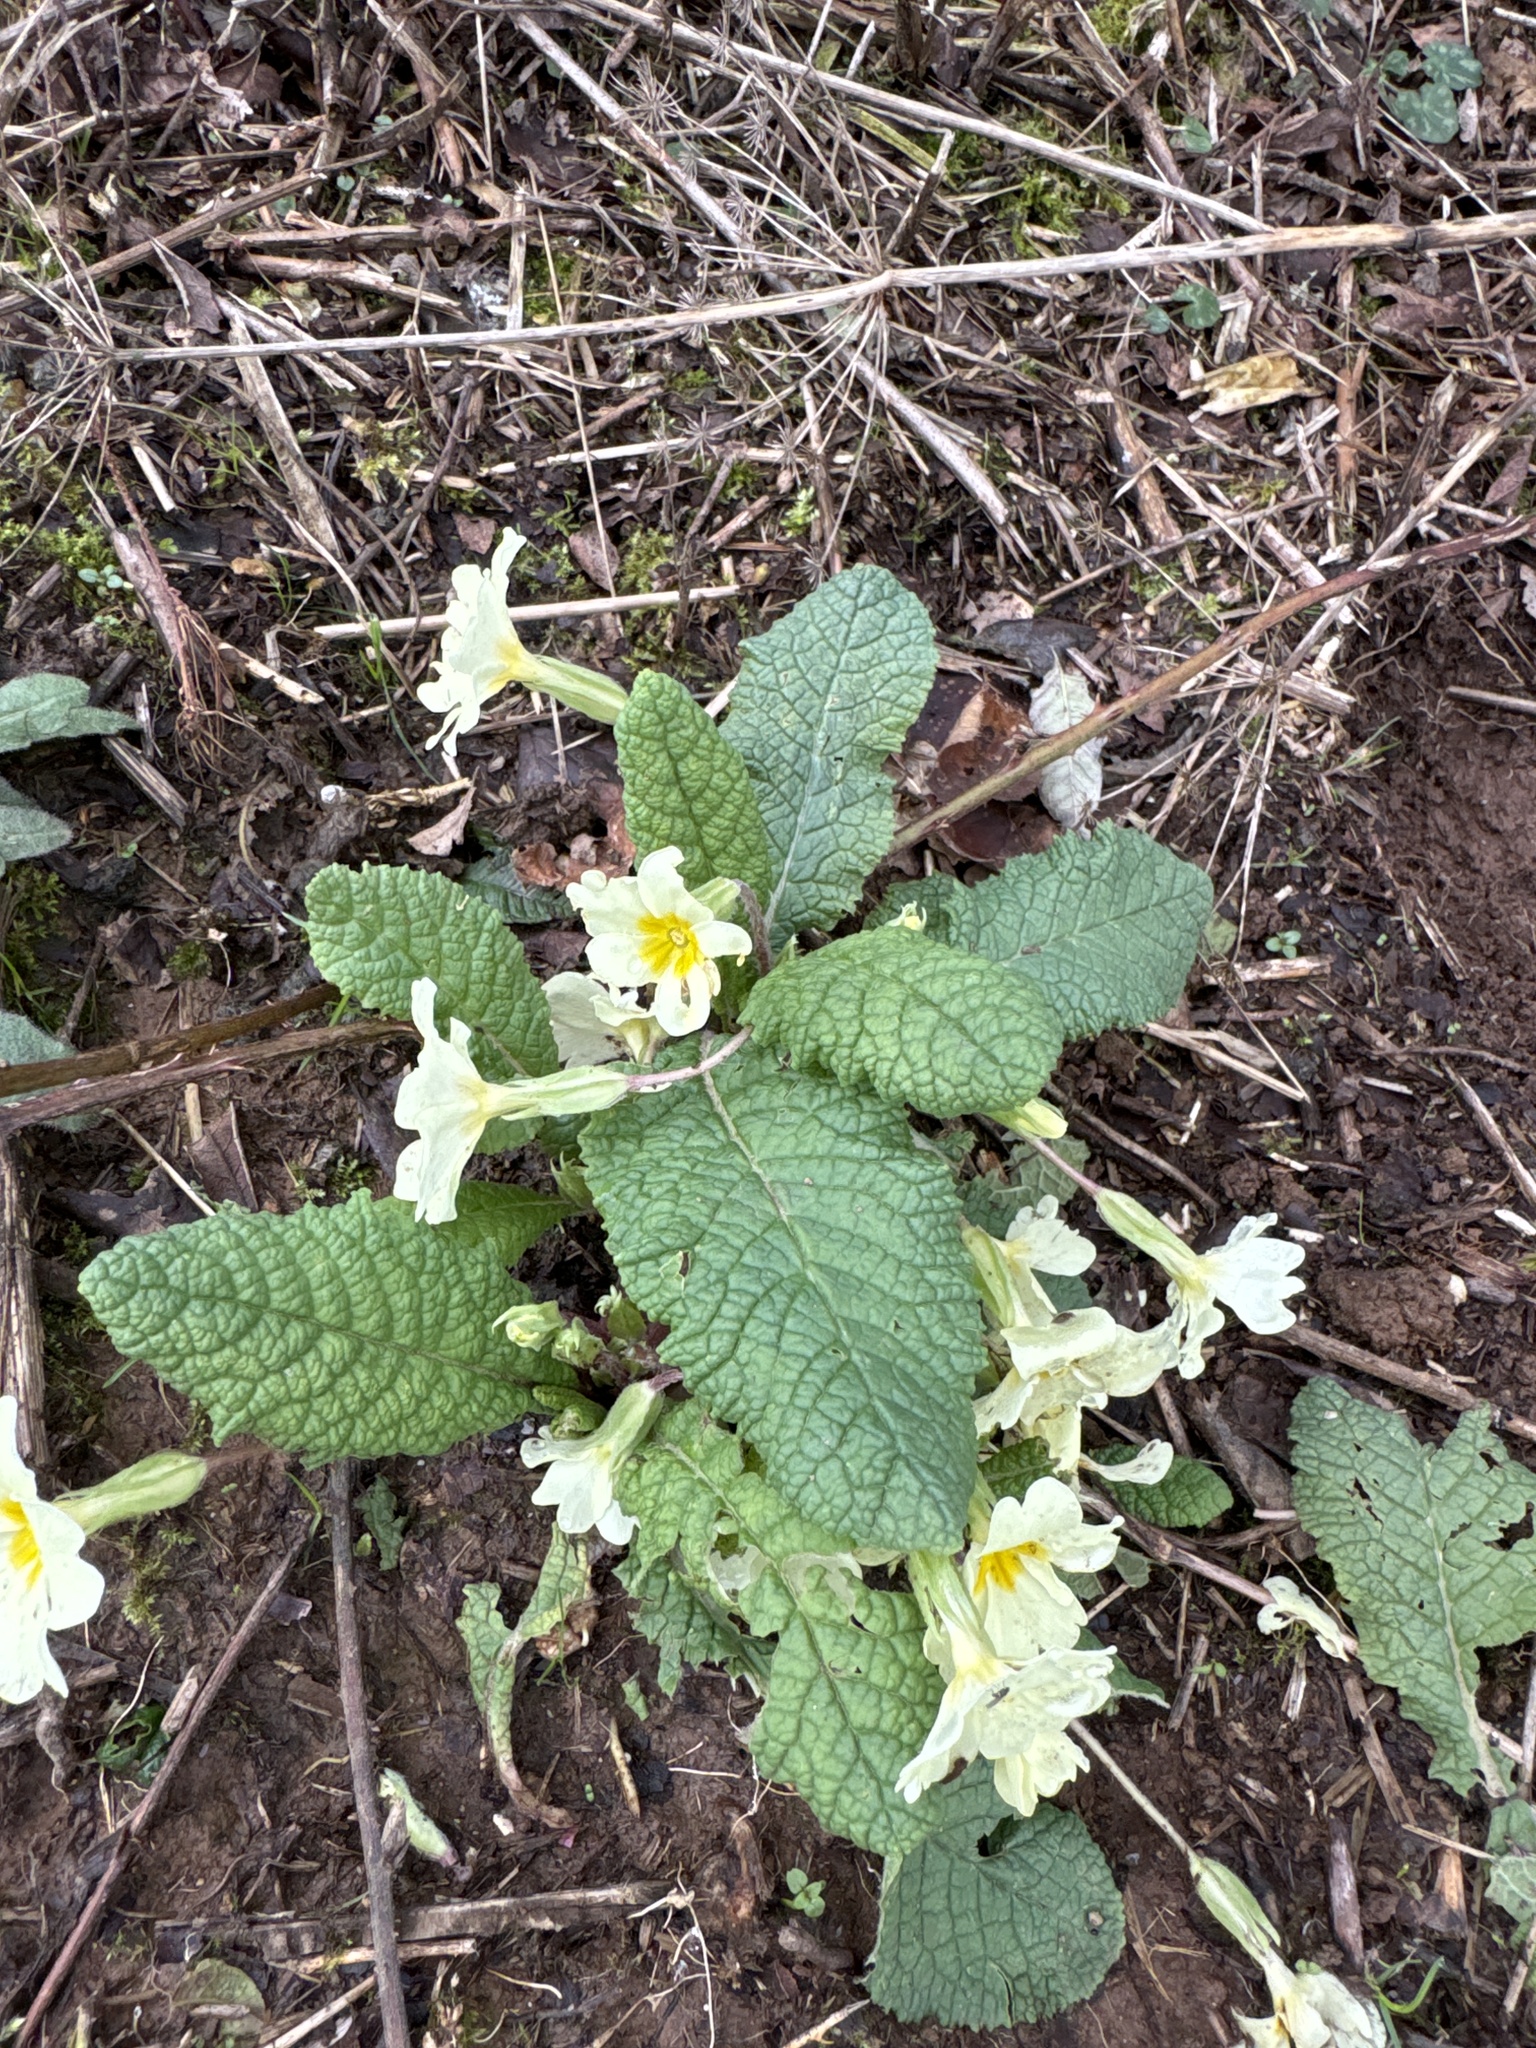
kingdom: Plantae
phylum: Tracheophyta
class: Magnoliopsida
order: Ericales
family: Primulaceae
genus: Primula
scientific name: Primula vulgaris
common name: Primrose
